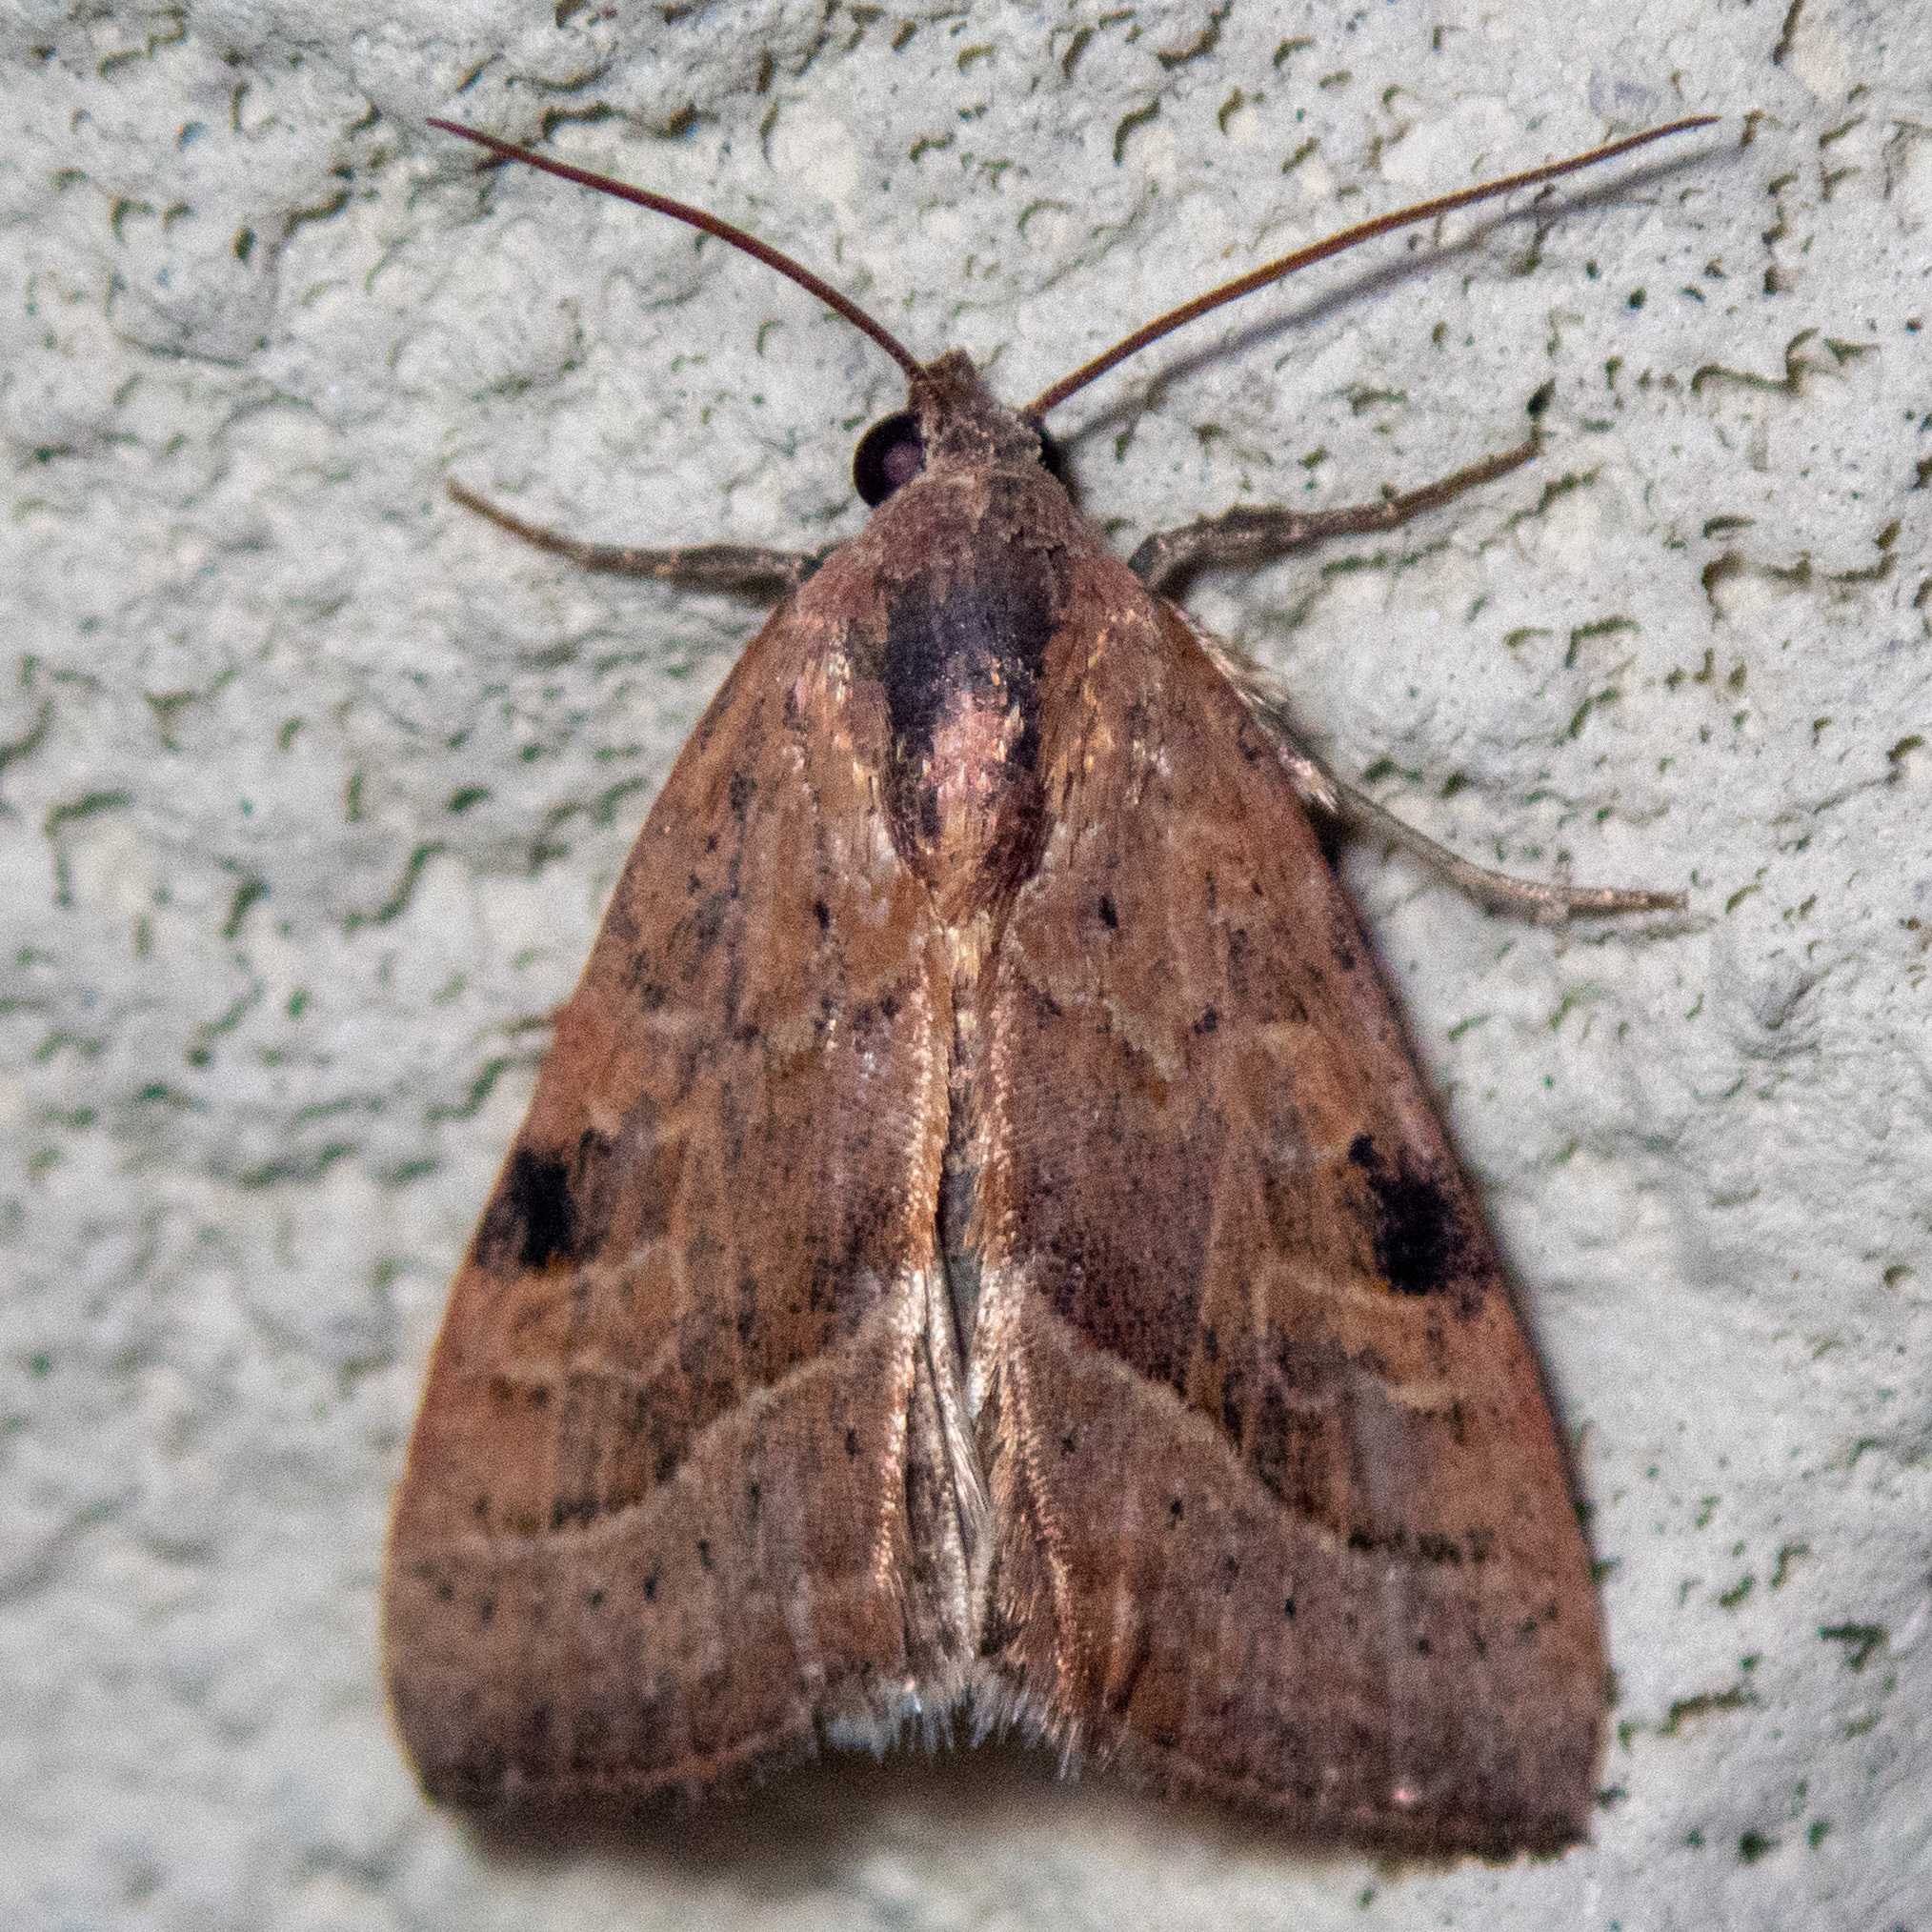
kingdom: Animalia
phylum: Arthropoda
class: Insecta
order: Lepidoptera
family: Noctuidae
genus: Galgula
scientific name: Galgula partita
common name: Wedgeling
